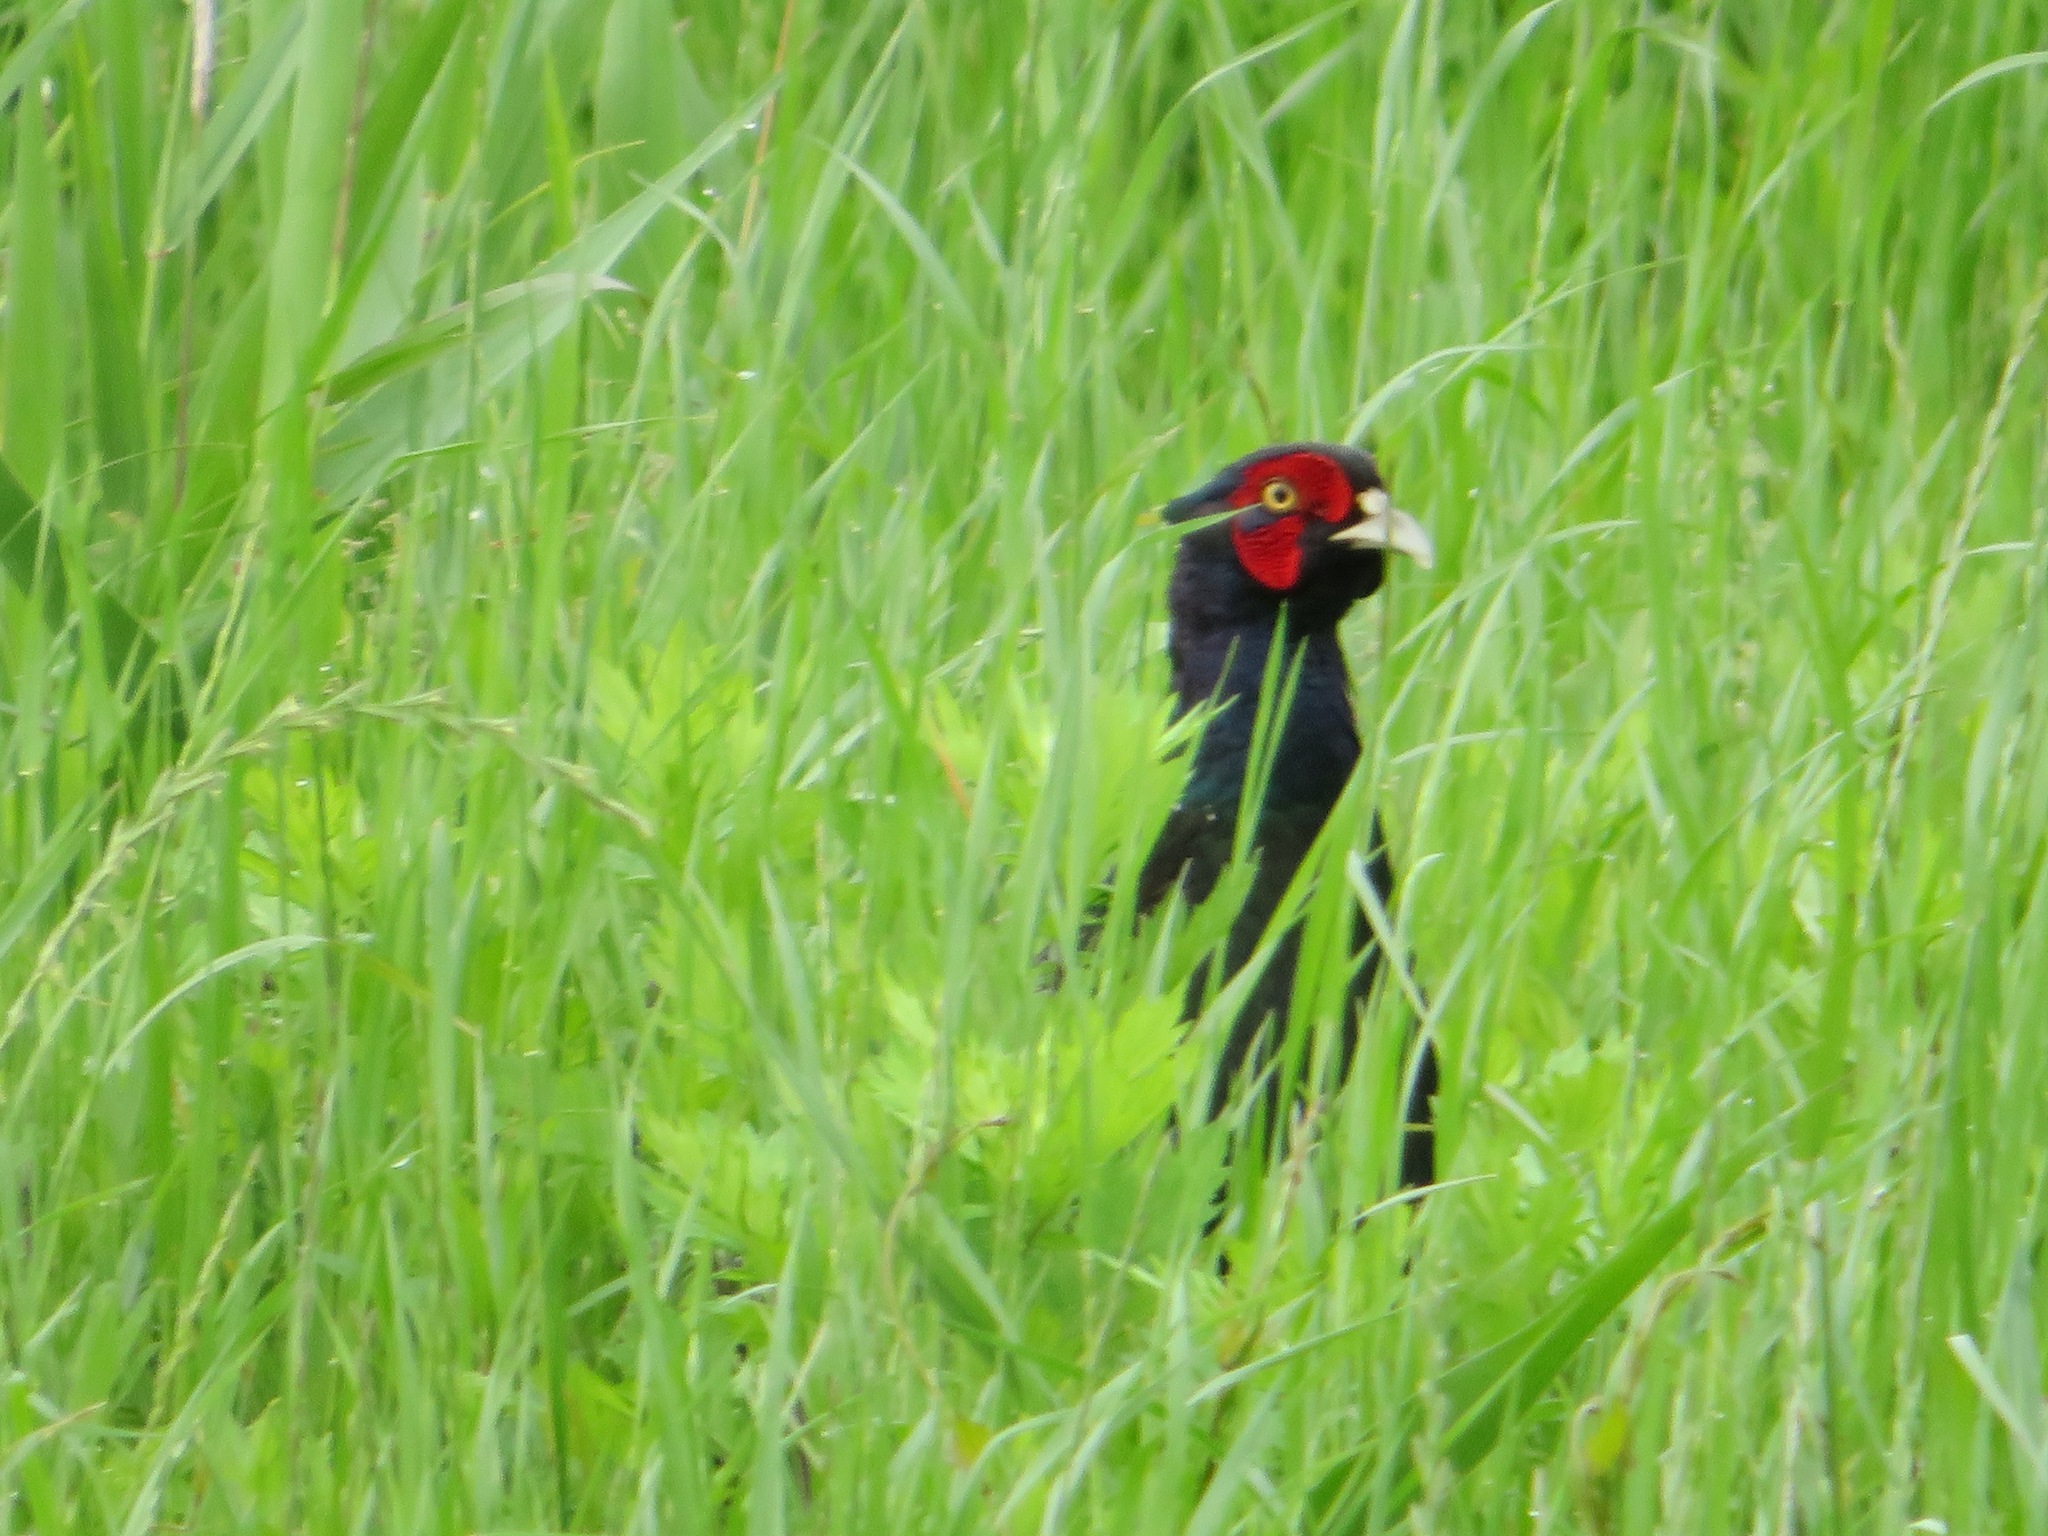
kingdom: Animalia
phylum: Chordata
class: Aves
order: Galliformes
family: Phasianidae
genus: Phasianus
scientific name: Phasianus versicolor
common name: Green pheasant
